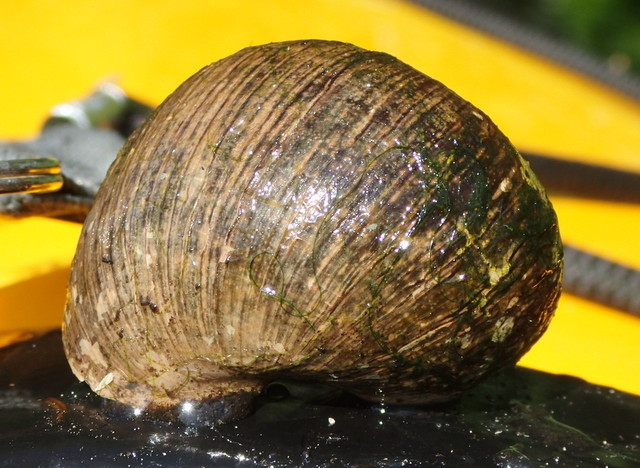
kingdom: Animalia
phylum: Mollusca
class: Gastropoda
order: Architaenioglossa
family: Ampullariidae
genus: Pomacea
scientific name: Pomacea paludosa
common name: Florida applesnail
